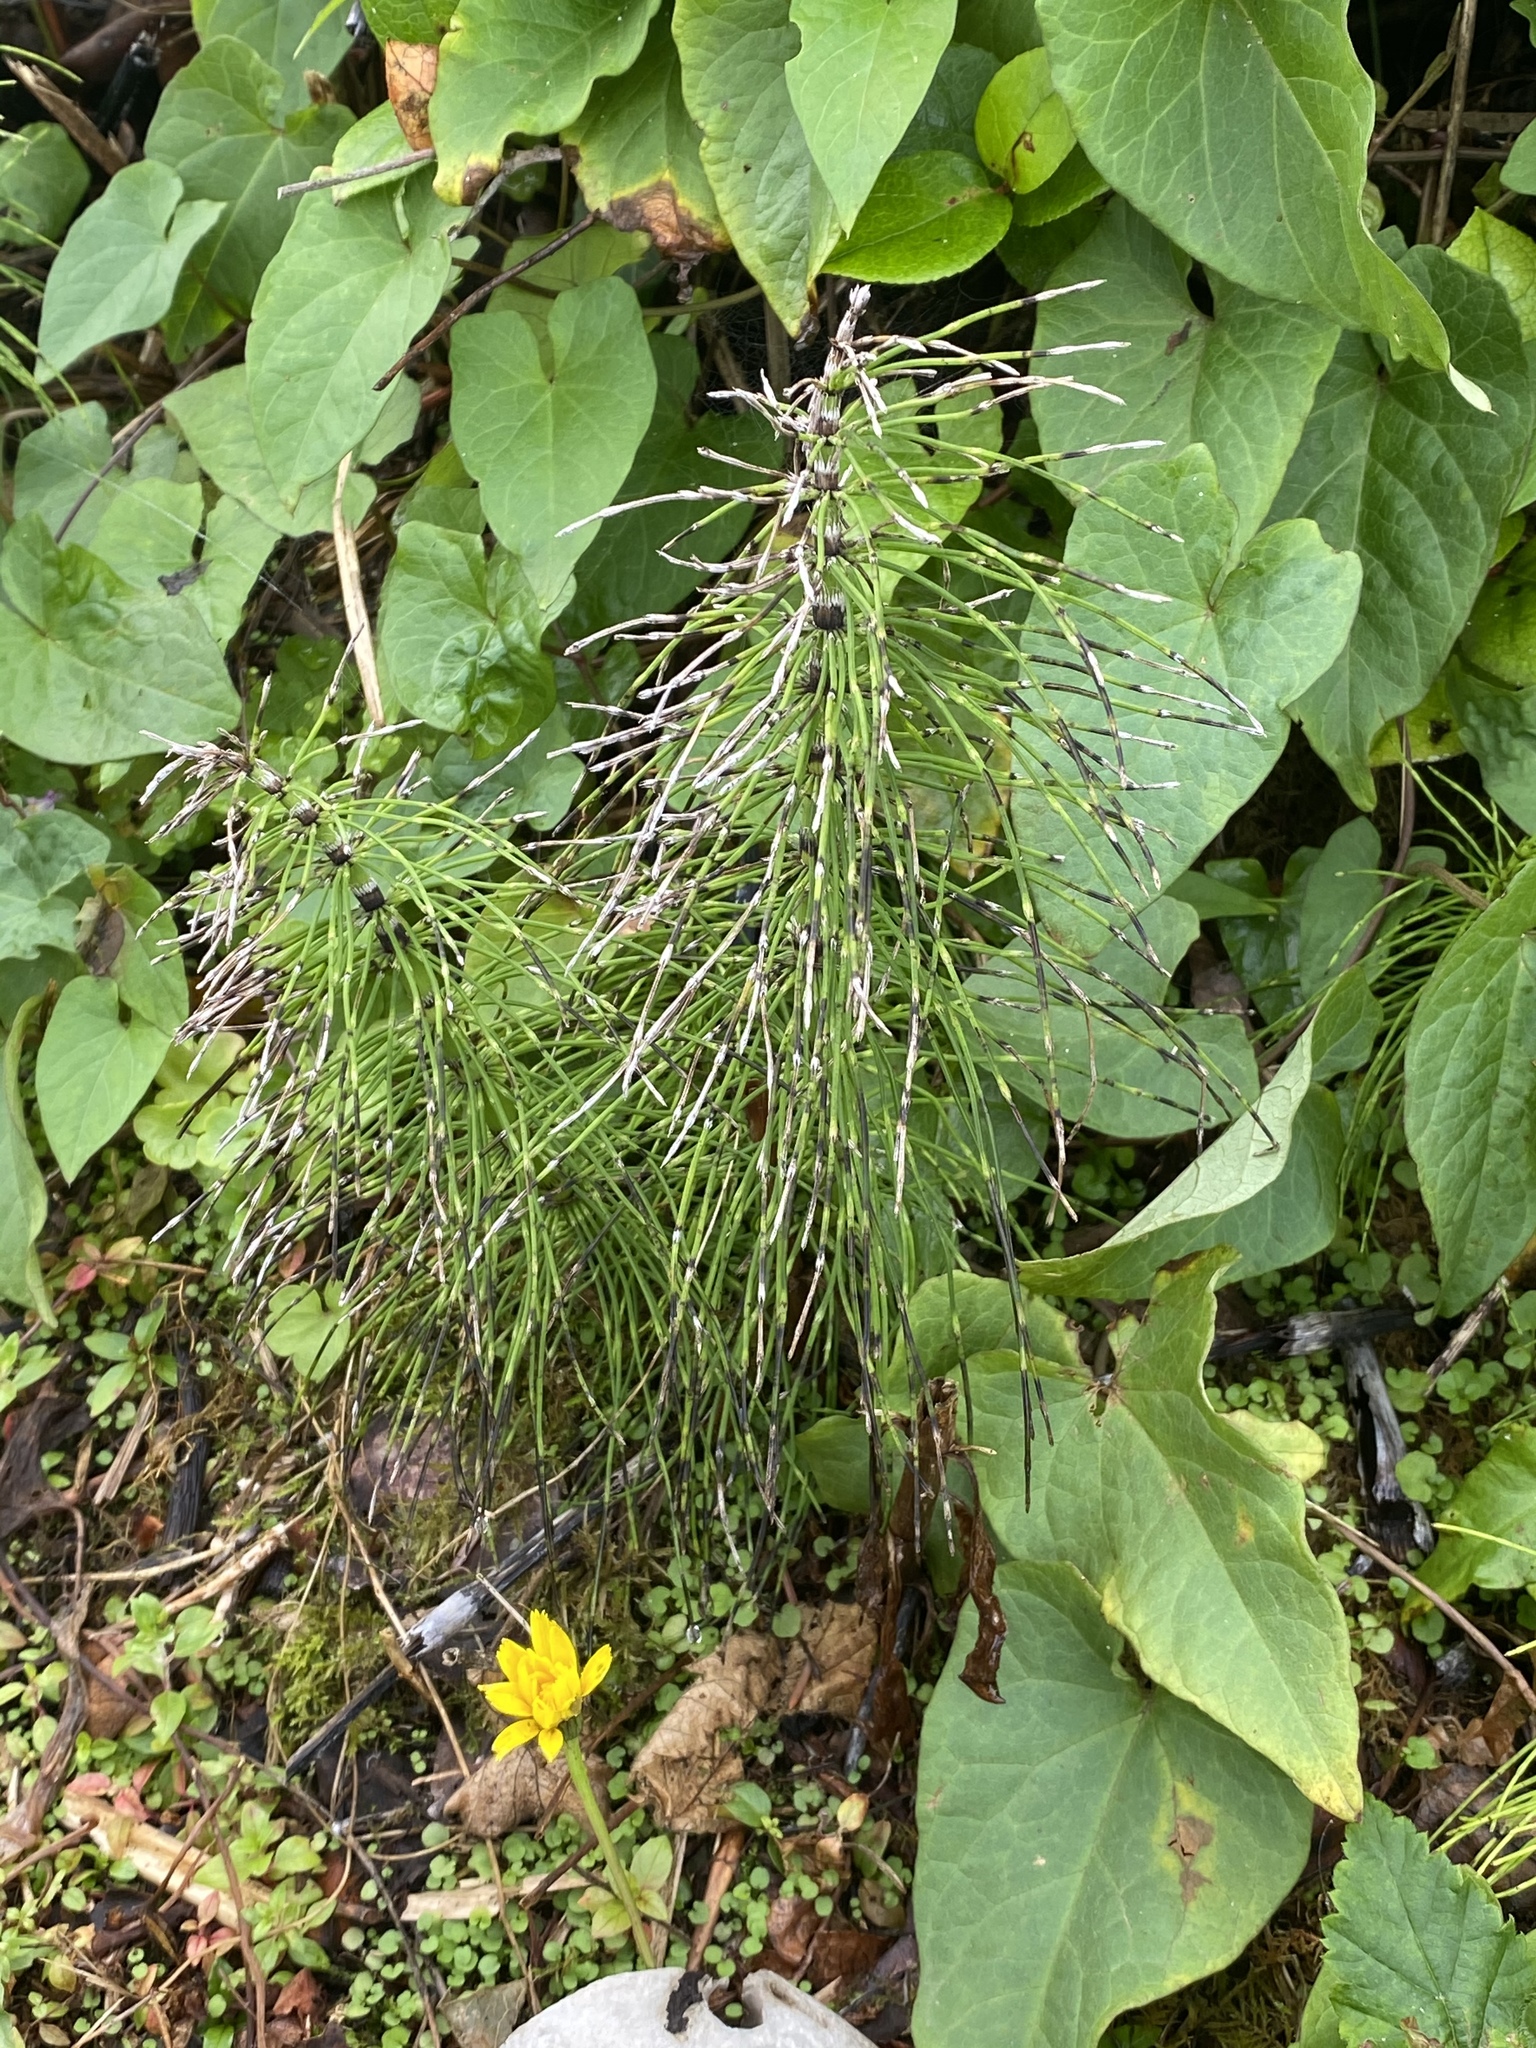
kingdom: Plantae
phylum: Tracheophyta
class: Polypodiopsida
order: Equisetales
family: Equisetaceae
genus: Equisetum
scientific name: Equisetum braunii
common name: Braun's horsetail
